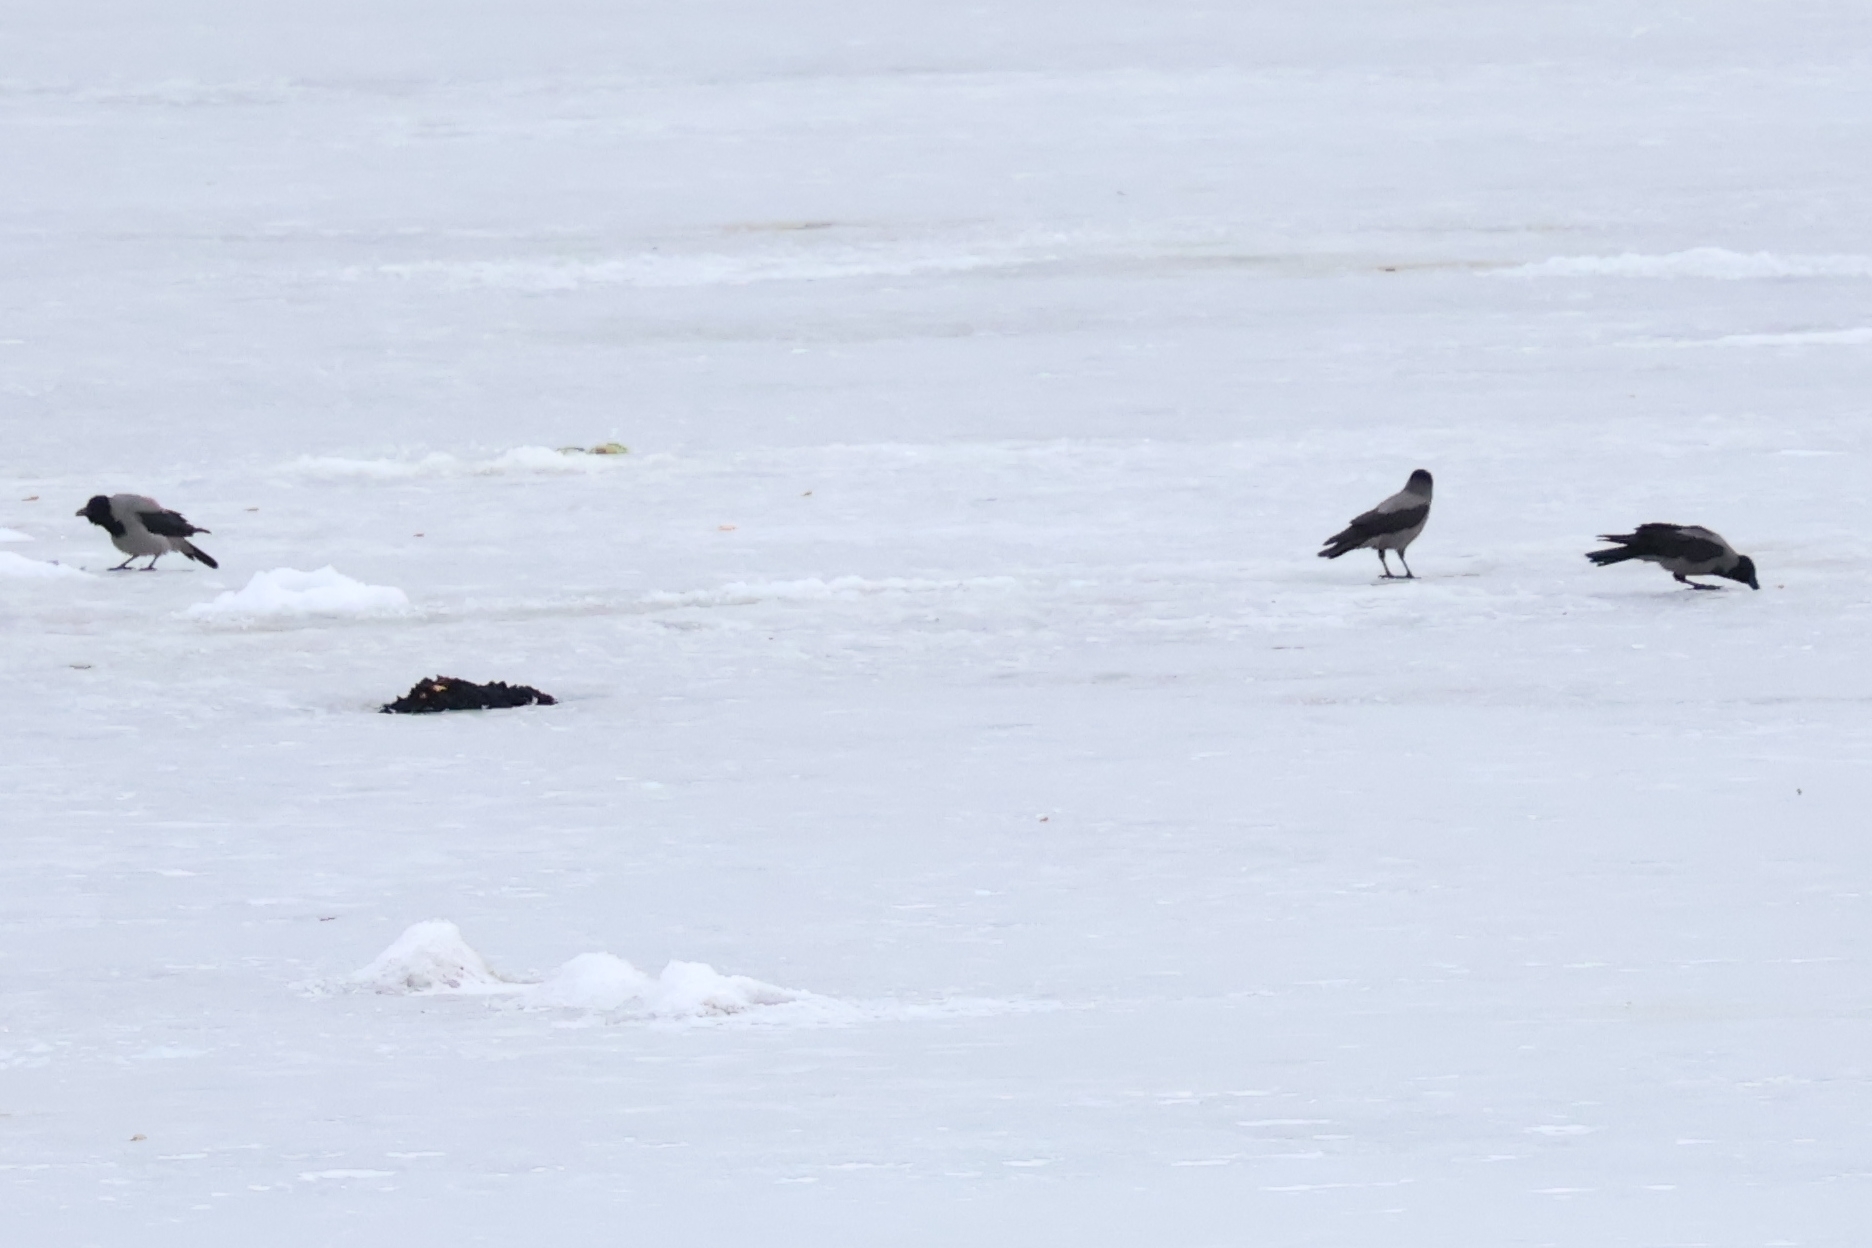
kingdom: Animalia
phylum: Chordata
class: Aves
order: Passeriformes
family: Corvidae
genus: Corvus
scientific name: Corvus cornix
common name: Hooded crow
